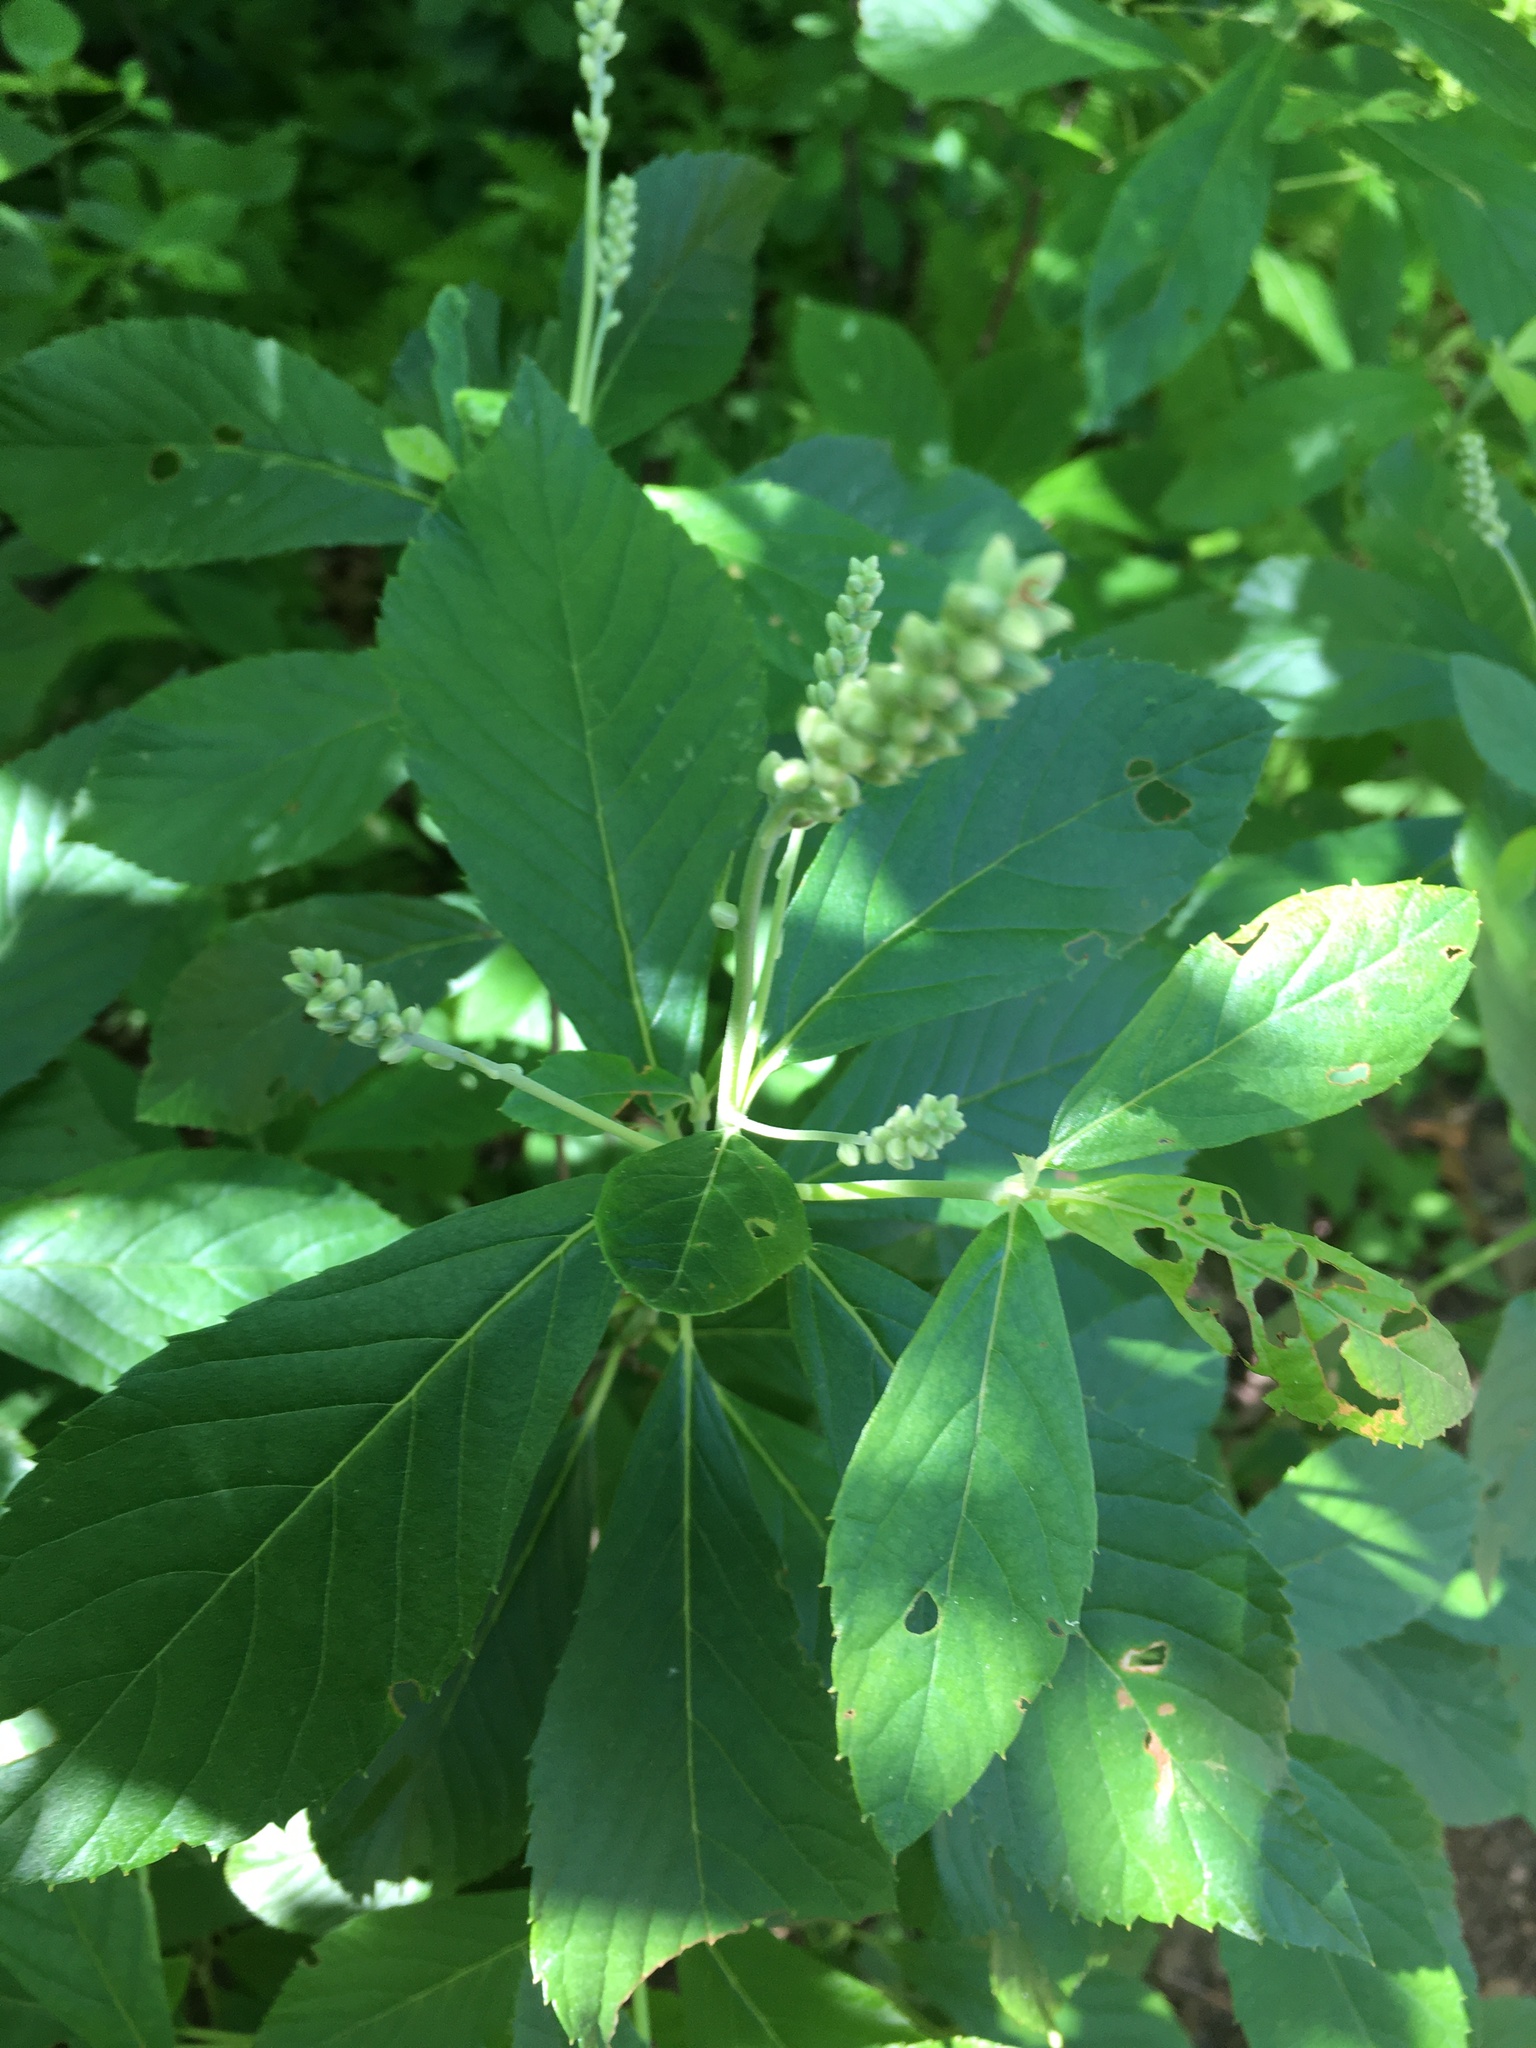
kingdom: Plantae
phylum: Tracheophyta
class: Magnoliopsida
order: Ericales
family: Clethraceae
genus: Clethra
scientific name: Clethra alnifolia
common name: Sweet pepperbush
